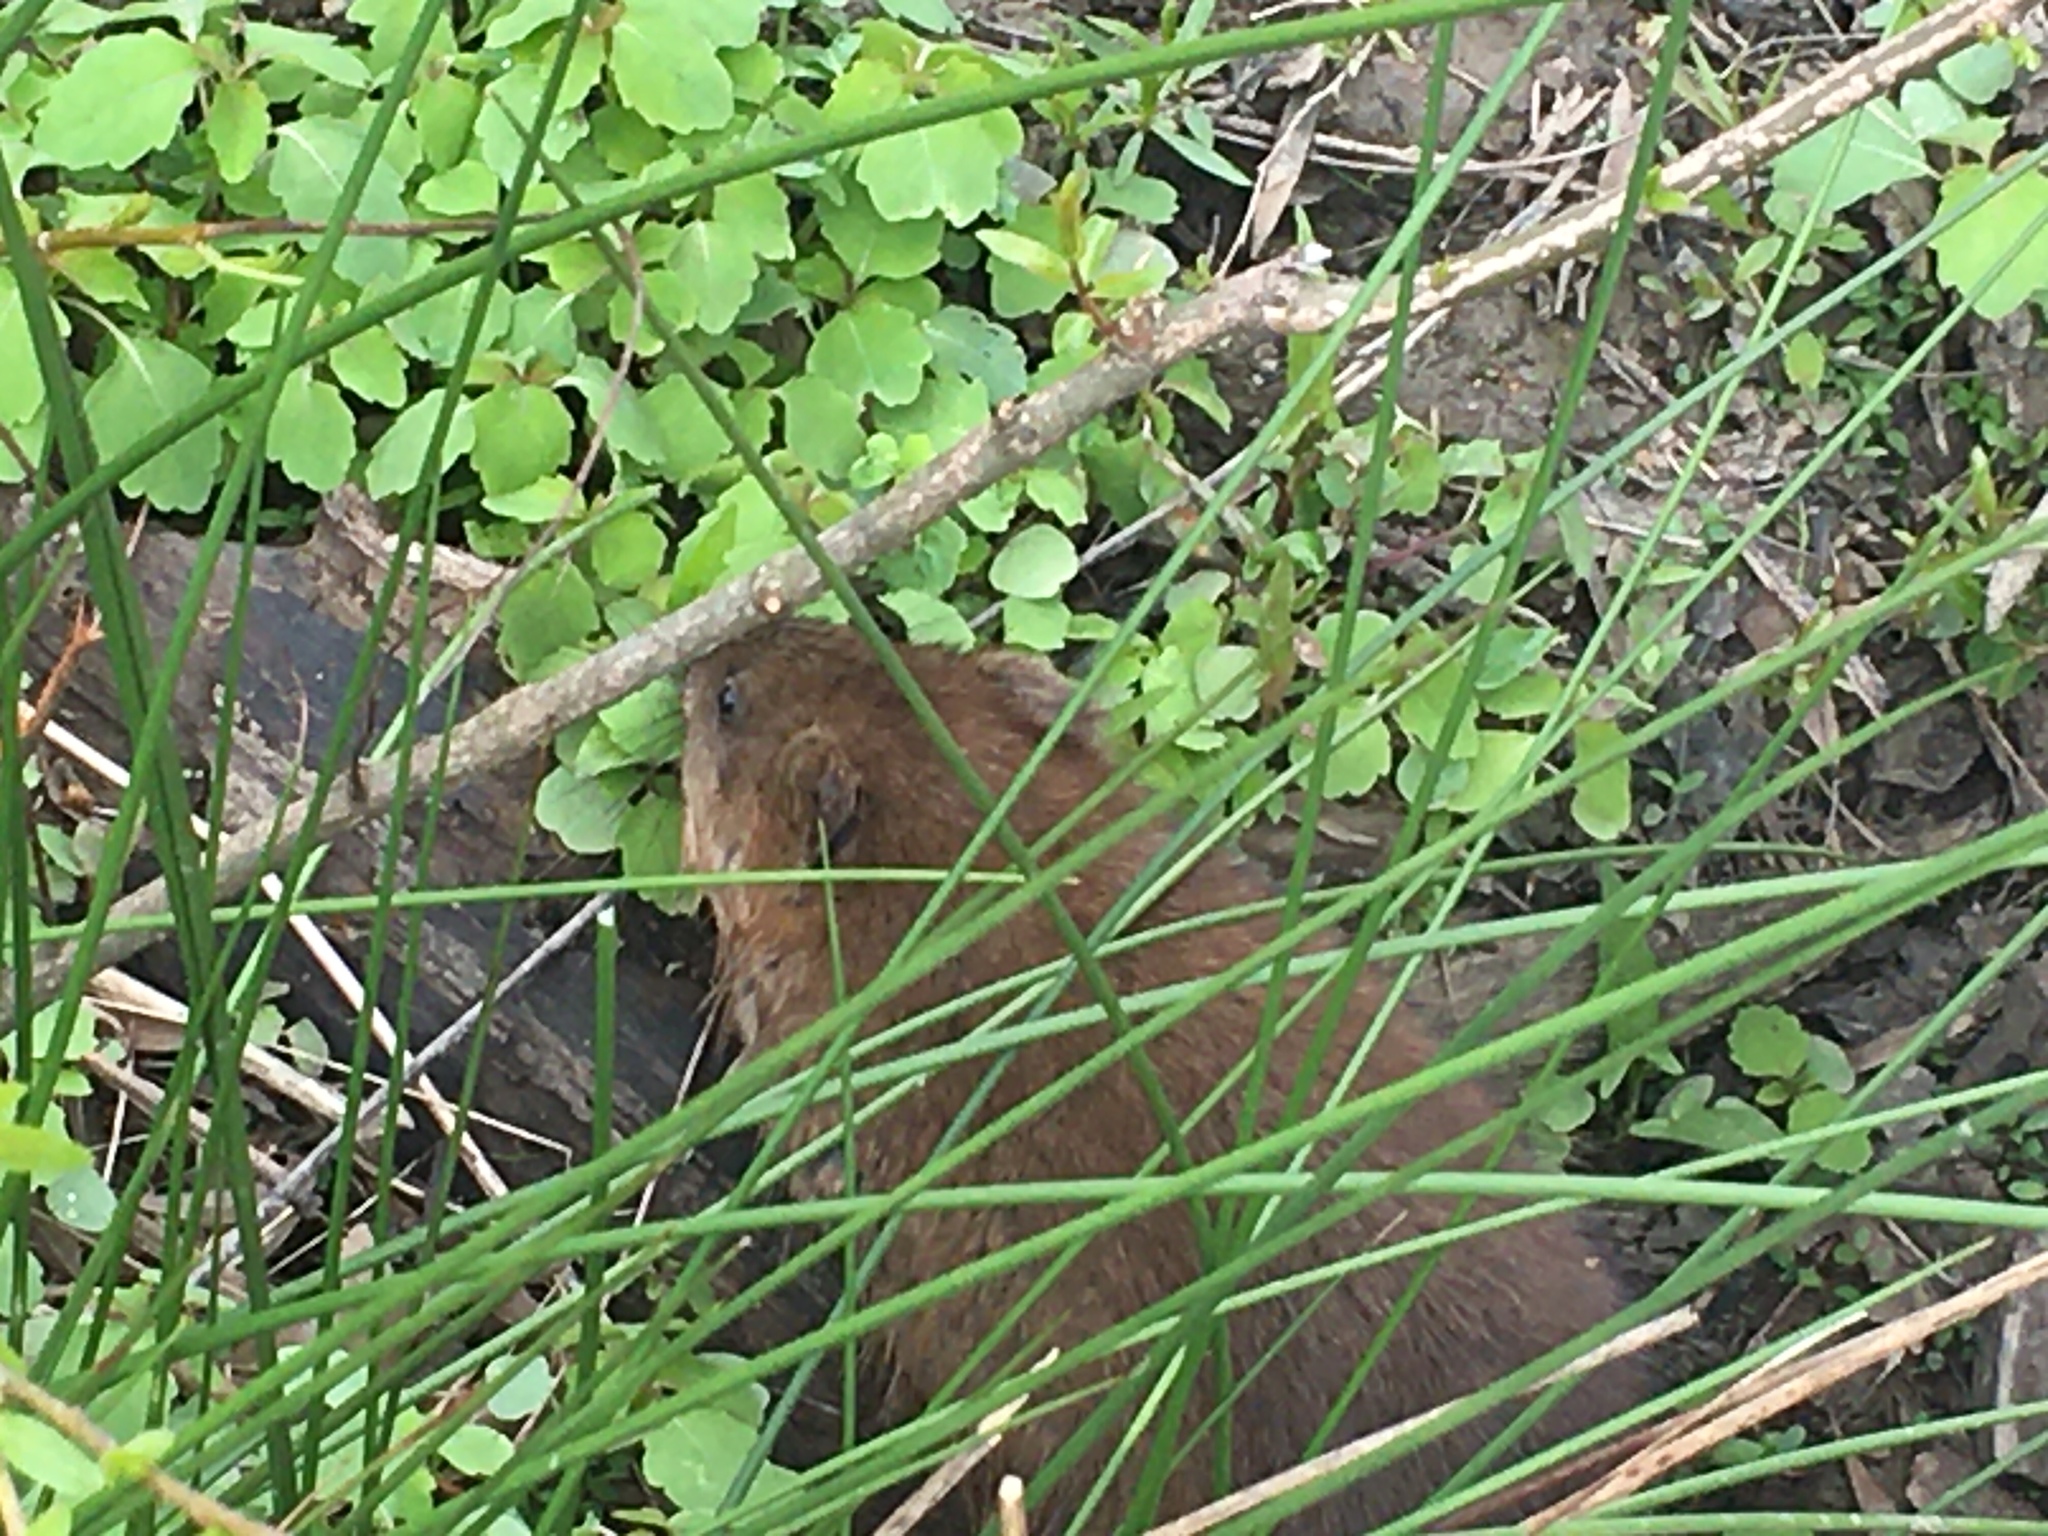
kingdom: Animalia
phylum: Chordata
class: Mammalia
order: Rodentia
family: Cricetidae
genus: Ondatra
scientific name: Ondatra zibethicus
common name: Muskrat
